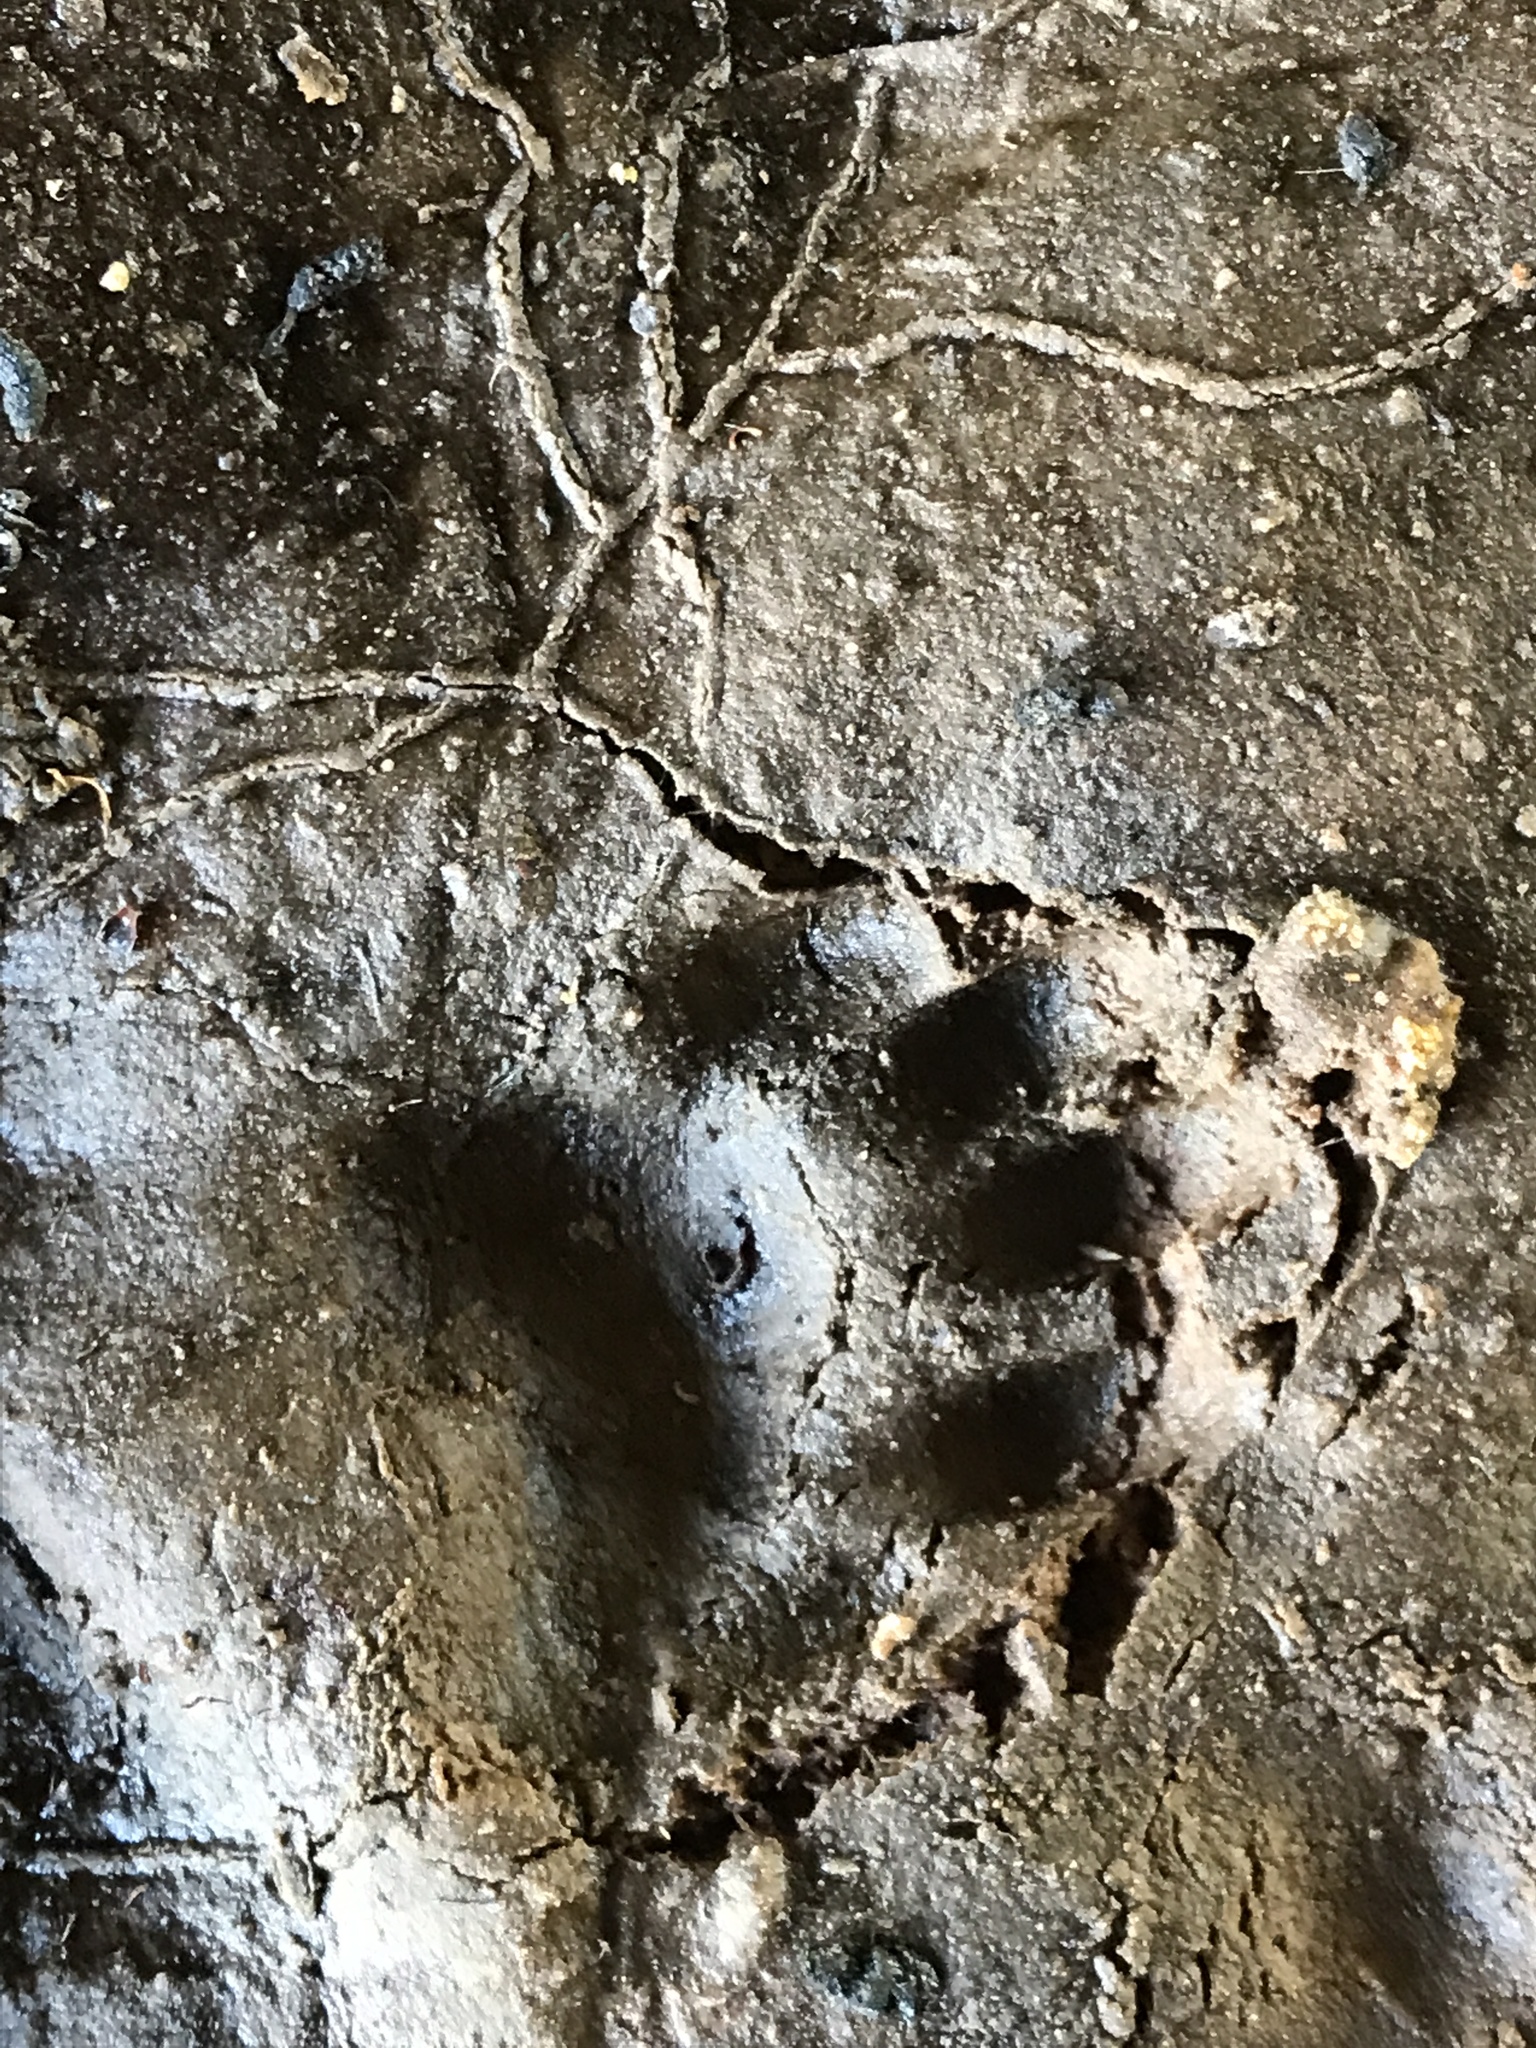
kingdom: Animalia
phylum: Chordata
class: Mammalia
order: Carnivora
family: Felidae
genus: Felis
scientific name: Felis catus
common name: Domestic cat
